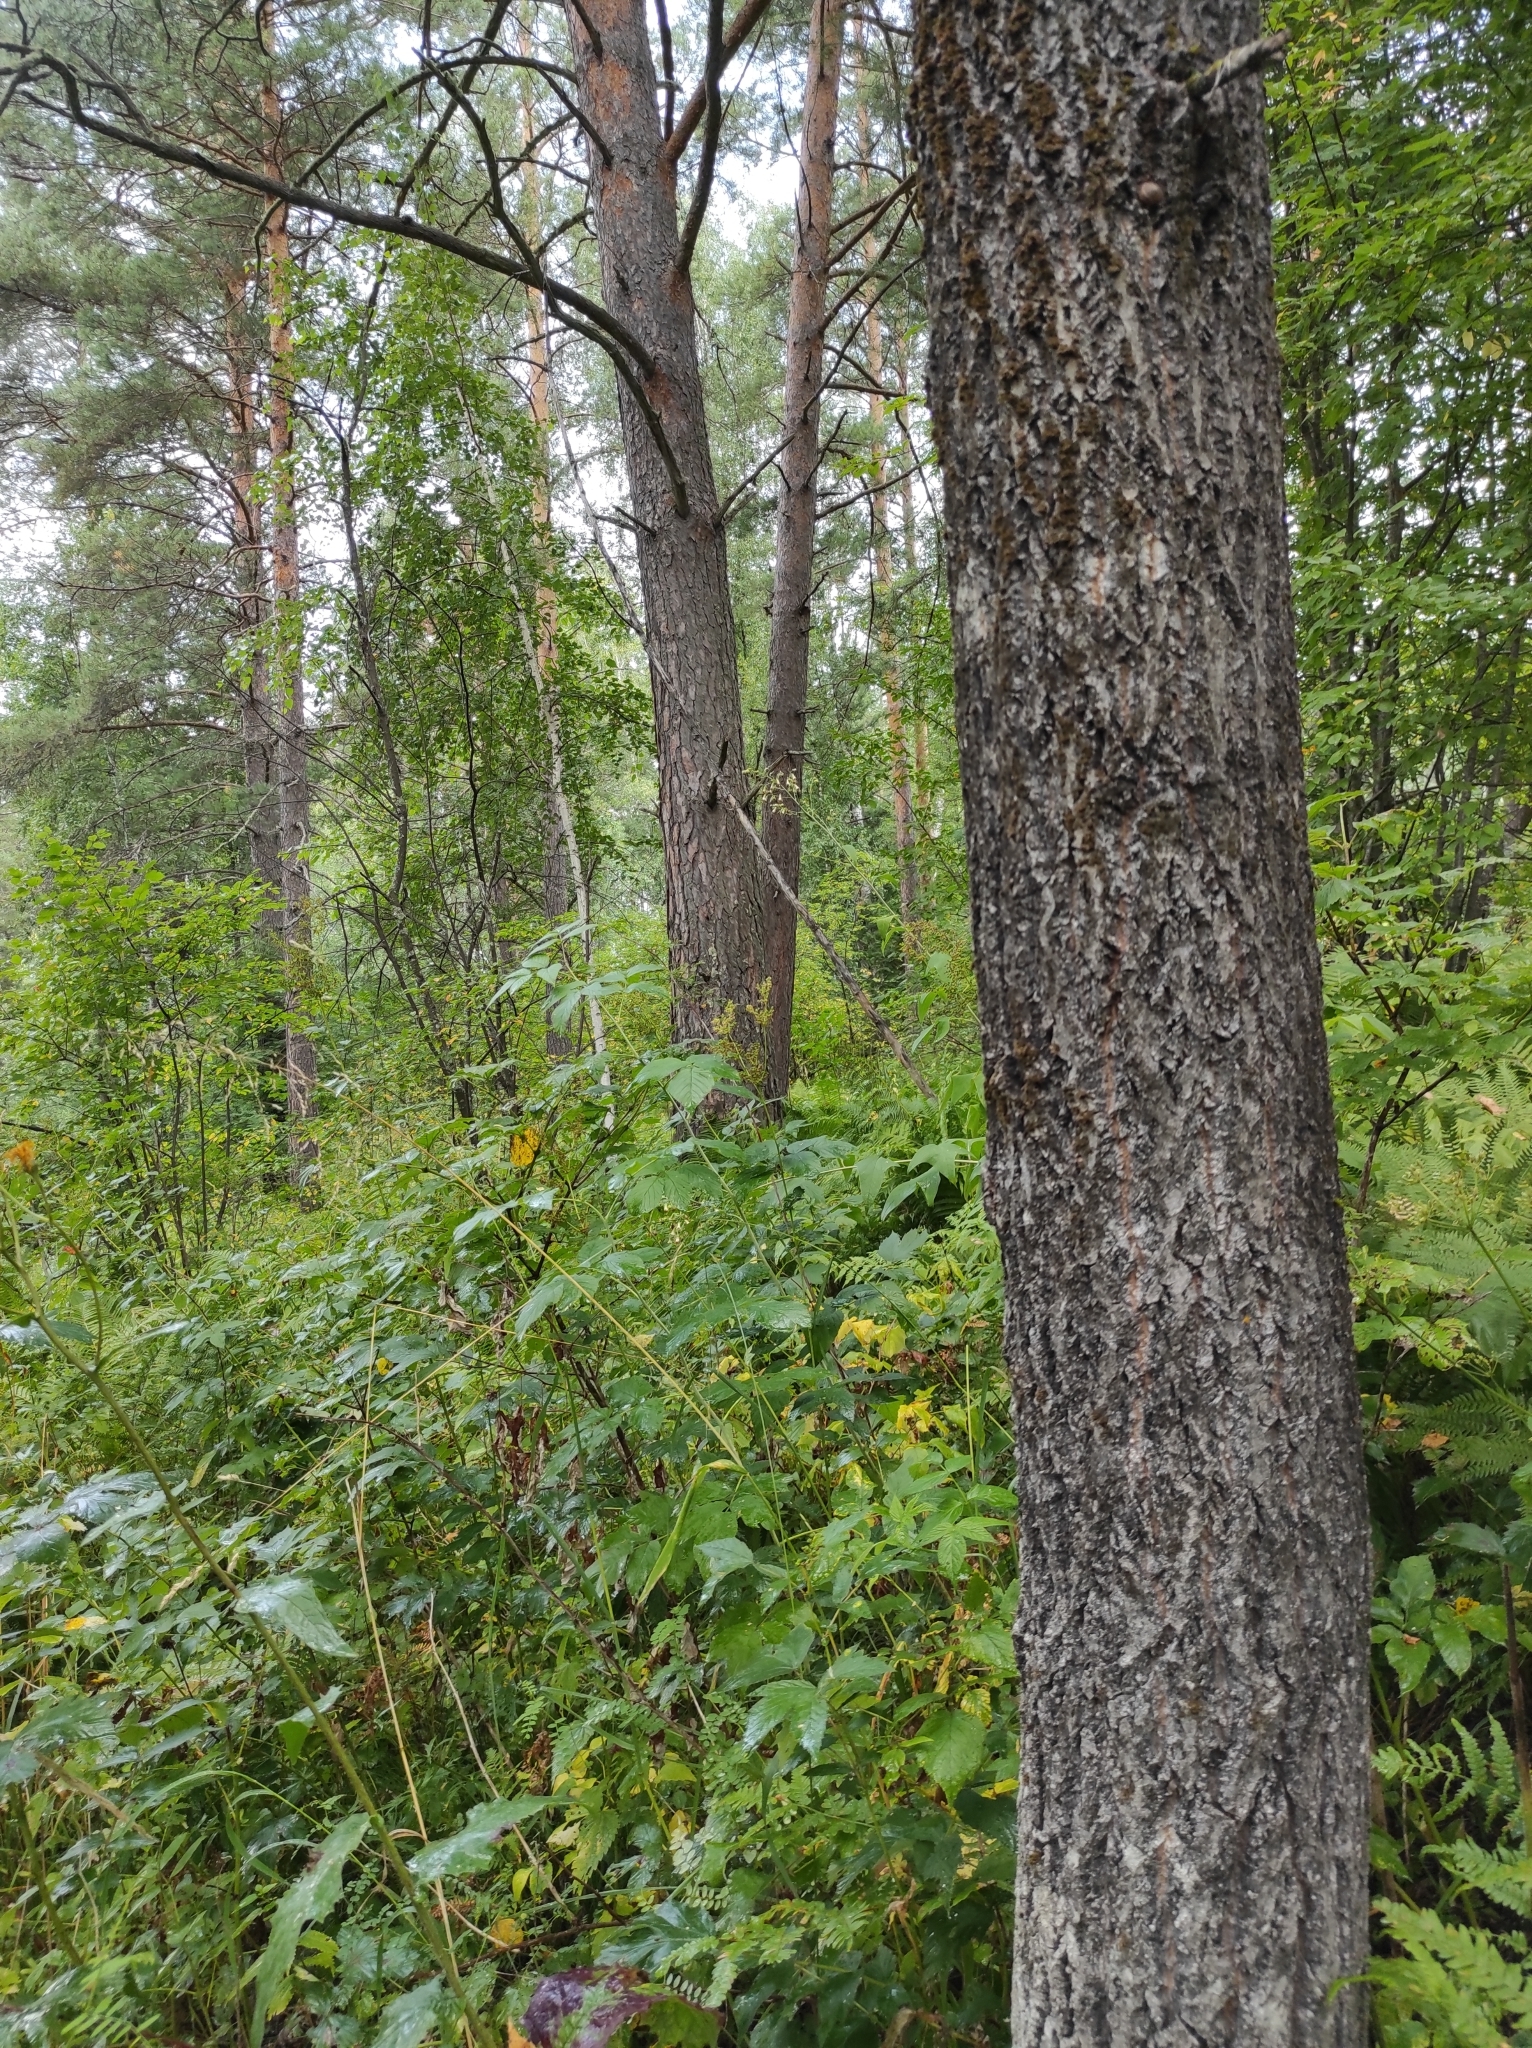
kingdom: Plantae
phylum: Tracheophyta
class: Pinopsida
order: Pinales
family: Pinaceae
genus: Pinus
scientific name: Pinus sylvestris
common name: Scots pine
